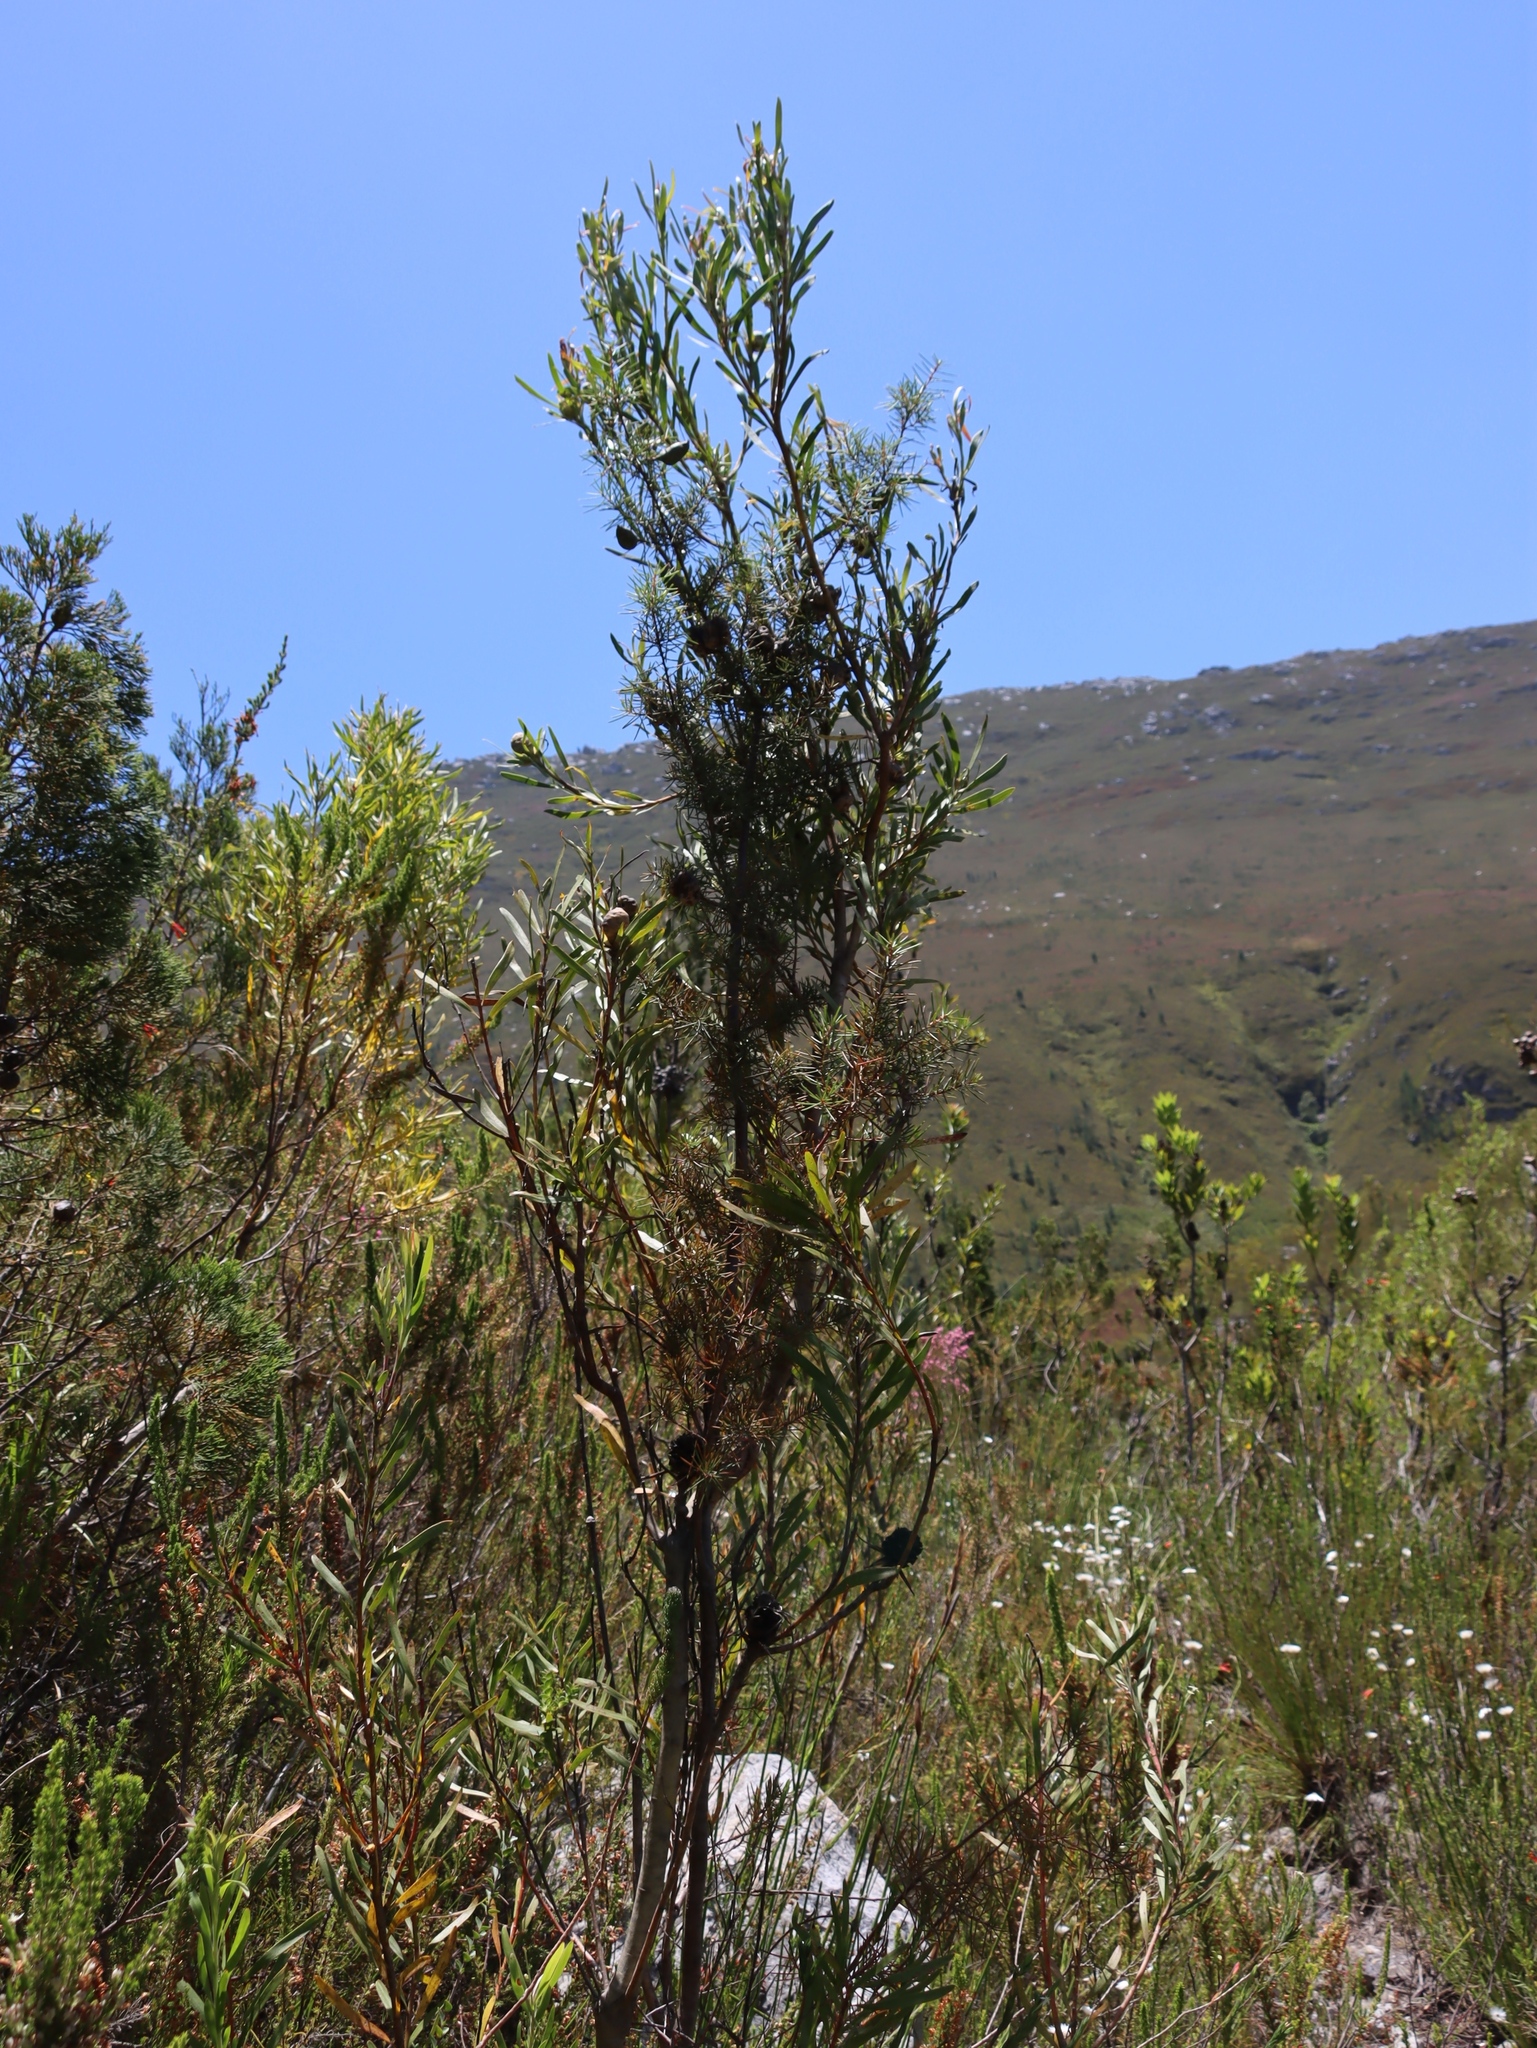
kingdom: Plantae
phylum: Tracheophyta
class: Magnoliopsida
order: Proteales
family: Proteaceae
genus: Hakea
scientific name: Hakea sericea
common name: Needle bush
